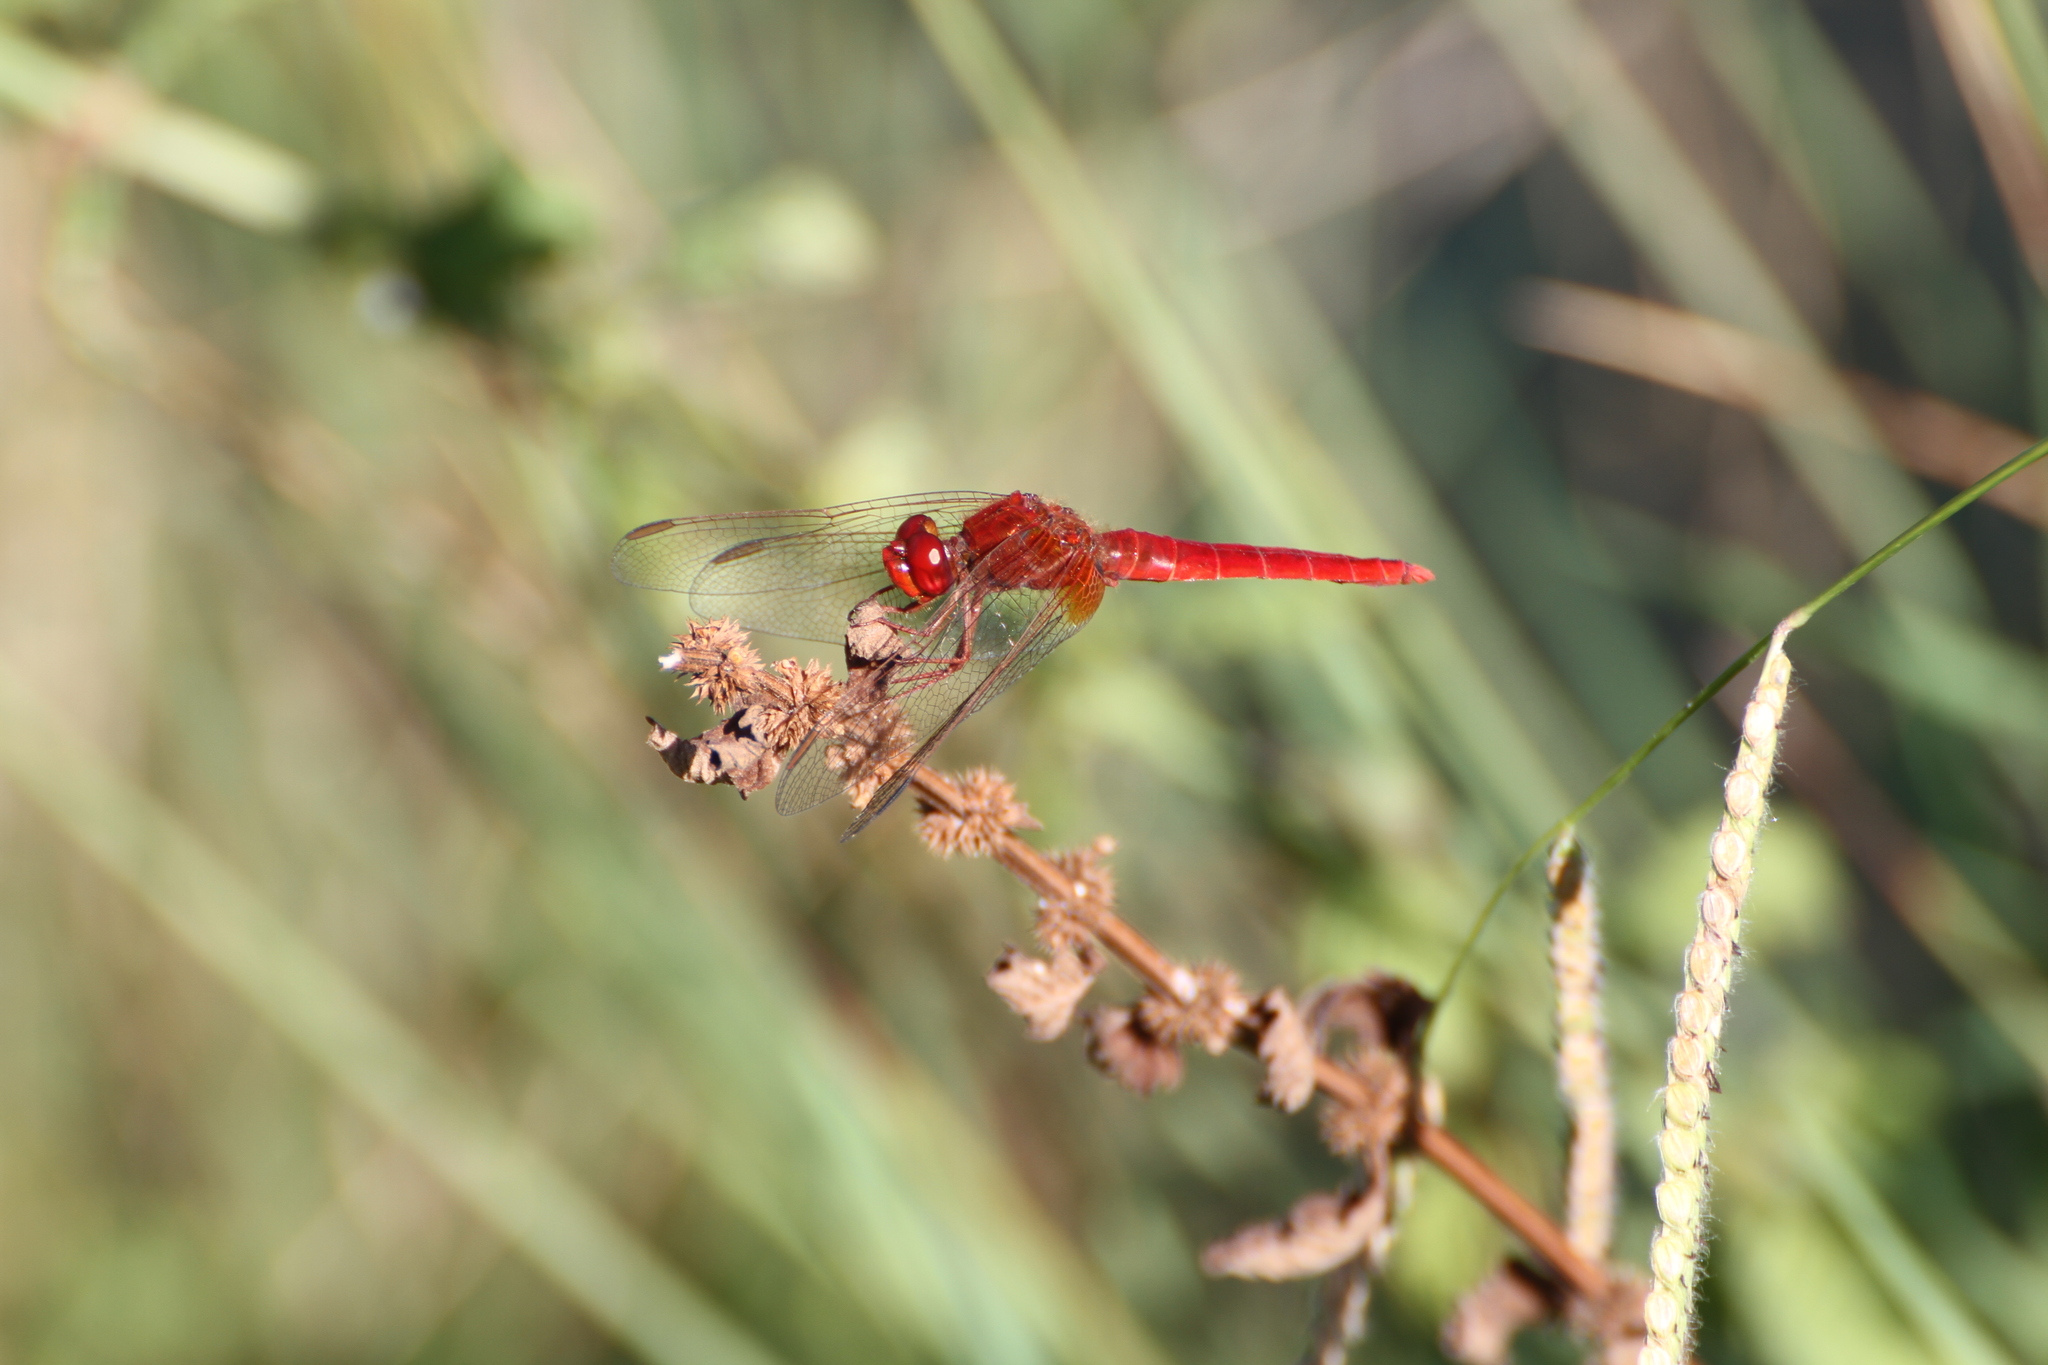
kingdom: Animalia
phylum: Arthropoda
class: Insecta
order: Odonata
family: Libellulidae
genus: Crocothemis
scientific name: Crocothemis erythraea
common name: Scarlet dragonfly
